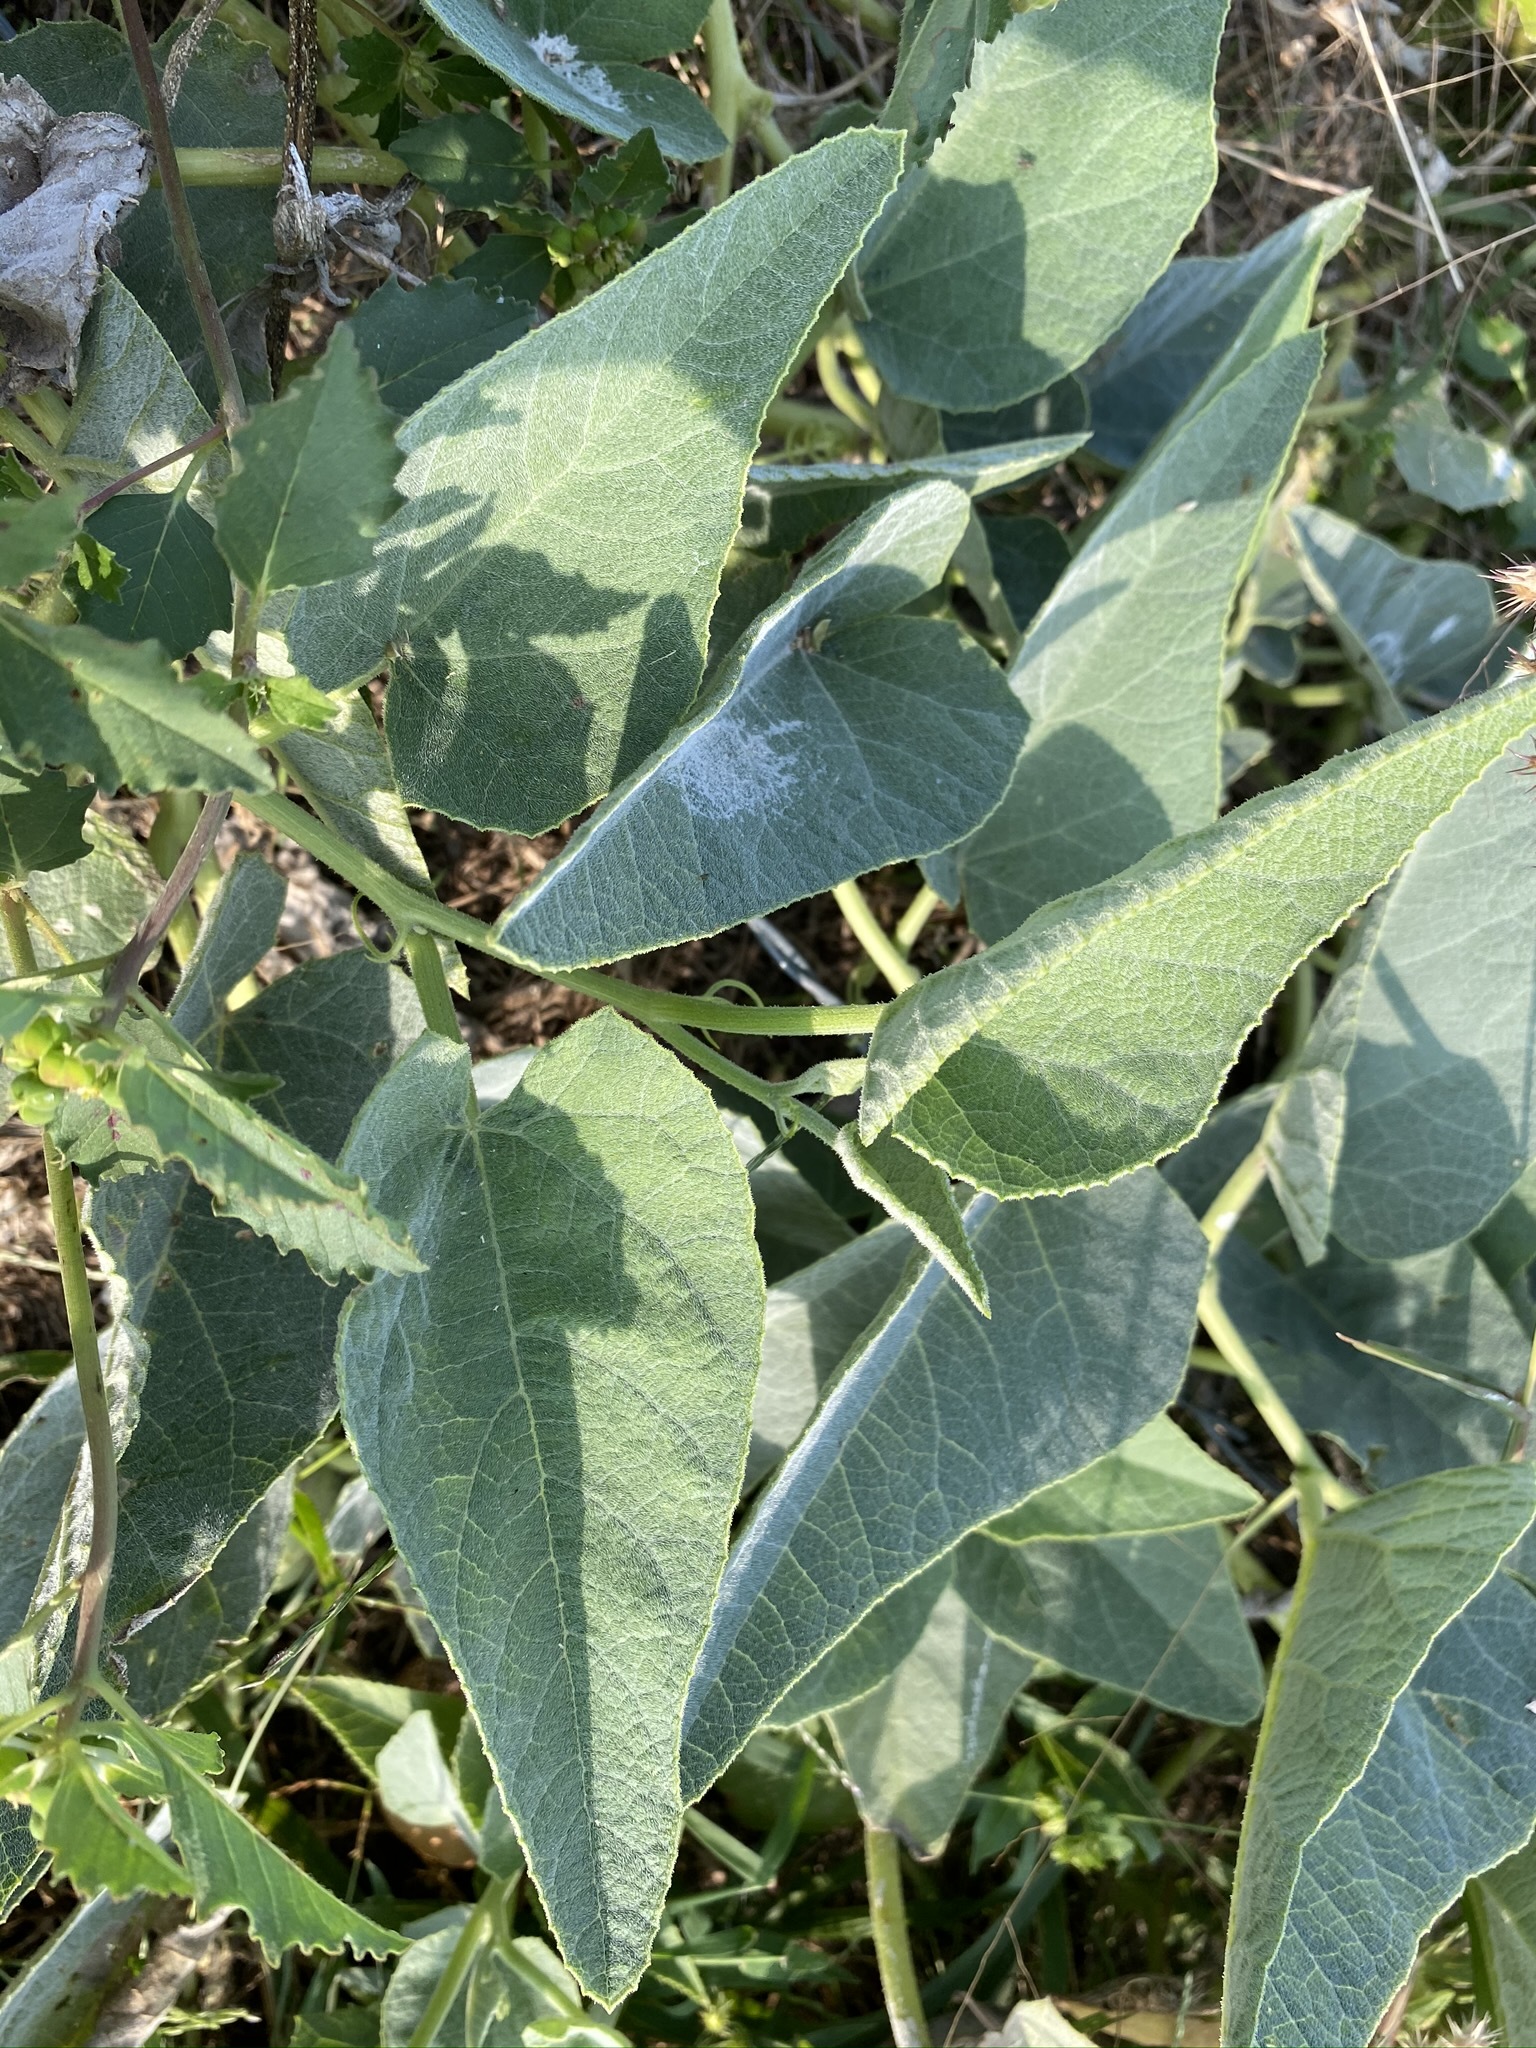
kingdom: Plantae
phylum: Tracheophyta
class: Magnoliopsida
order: Cucurbitales
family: Cucurbitaceae
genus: Cucurbita
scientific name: Cucurbita foetidissima
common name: Buffalo gourd
